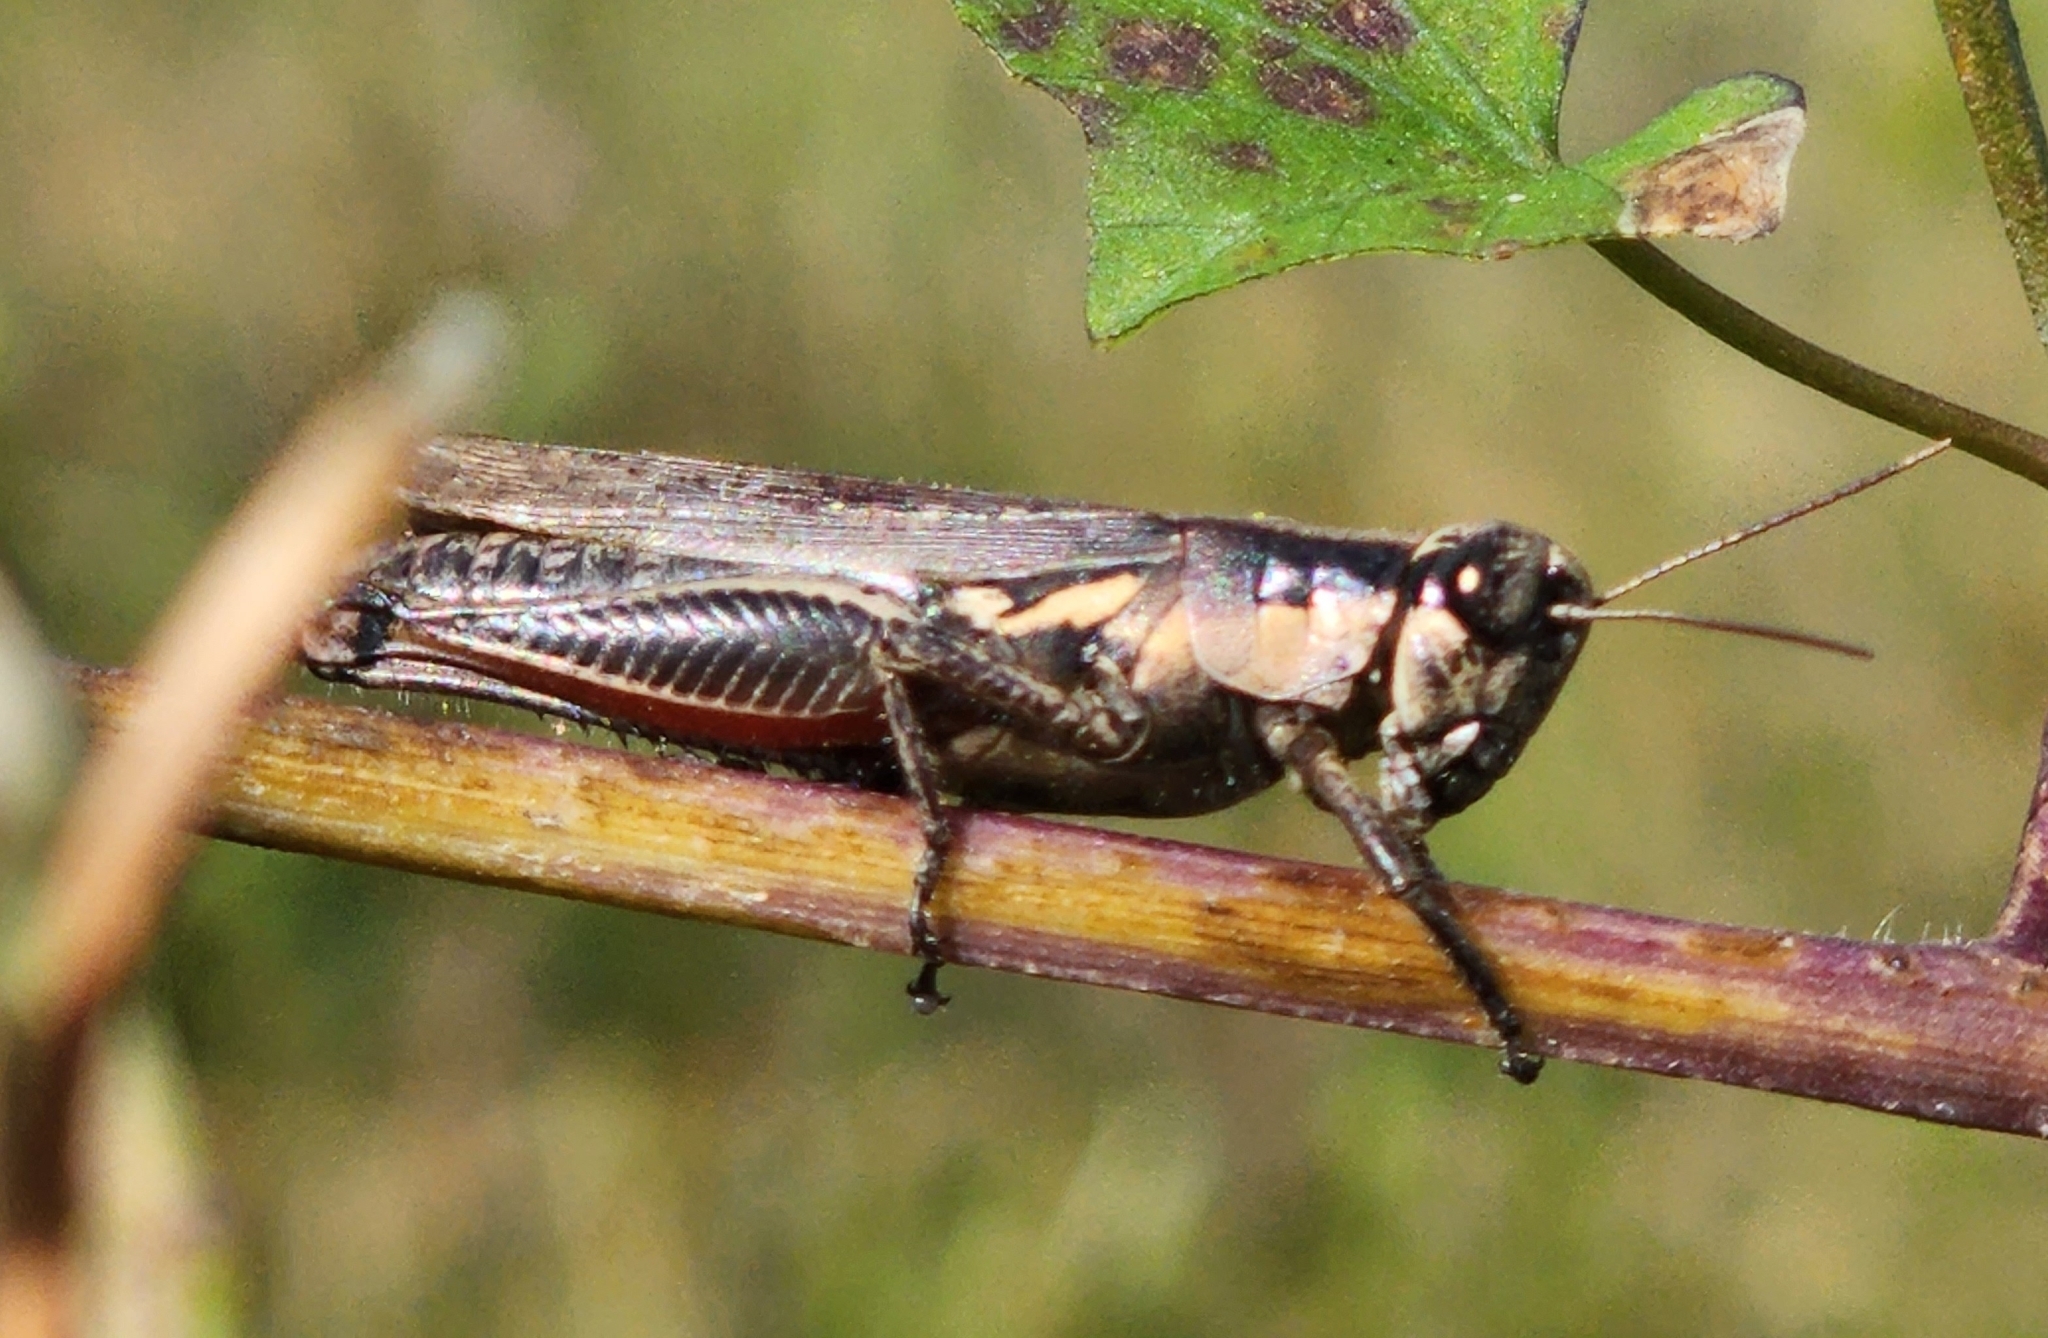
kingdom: Animalia
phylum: Arthropoda
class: Insecta
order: Orthoptera
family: Acrididae
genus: Paroxya
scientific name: Paroxya atlantica
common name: Atlantic grasshopper
